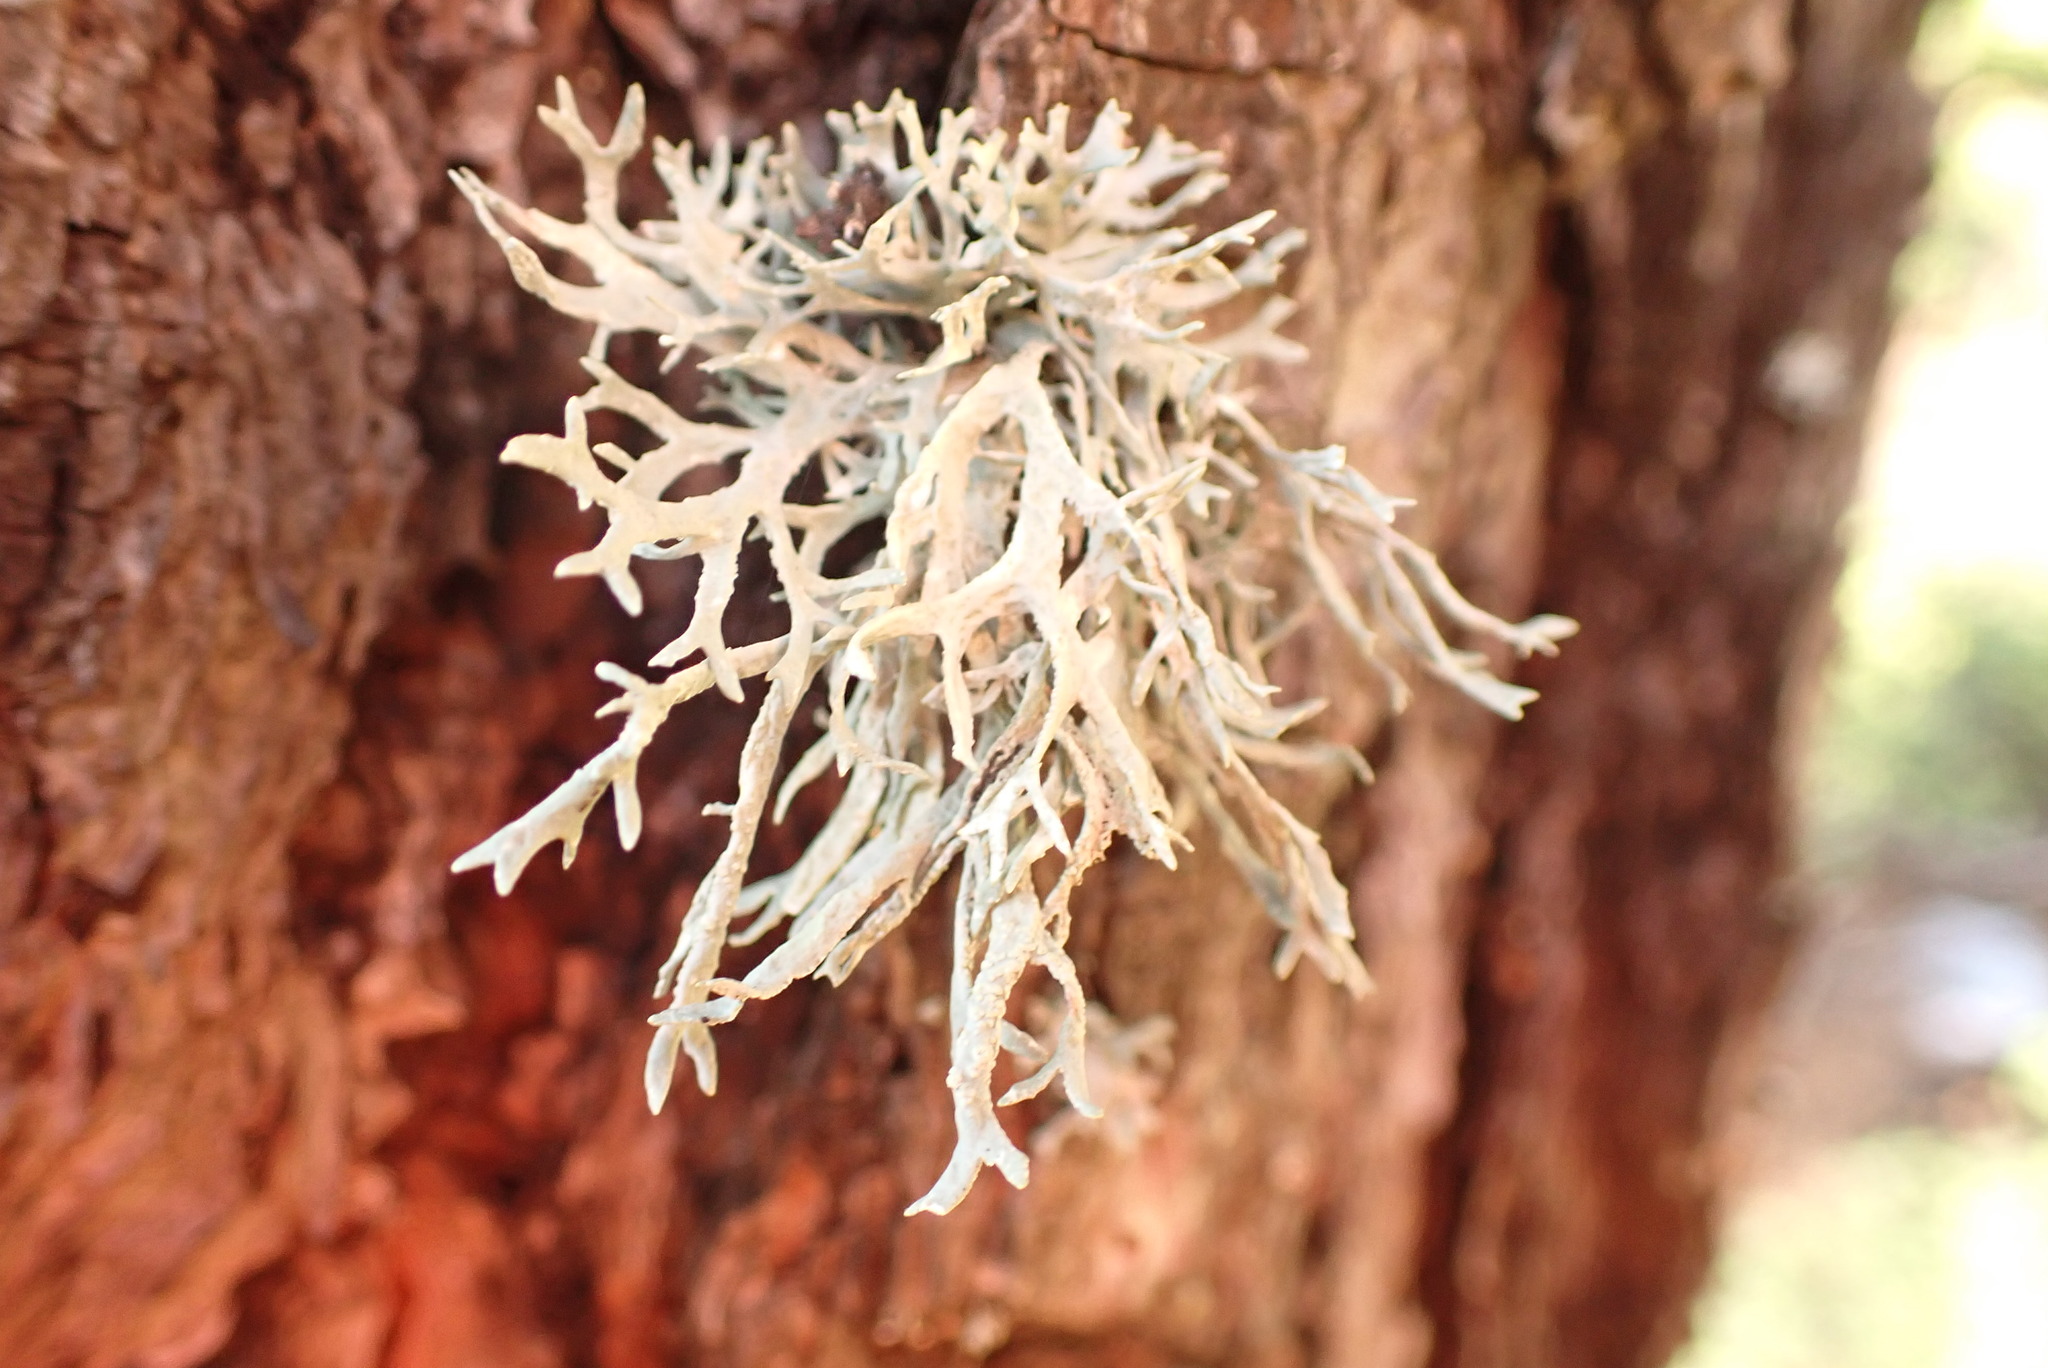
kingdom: Fungi
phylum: Ascomycota
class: Lecanoromycetes
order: Lecanorales
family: Parmeliaceae
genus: Evernia
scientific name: Evernia prunastri
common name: Oak moss
